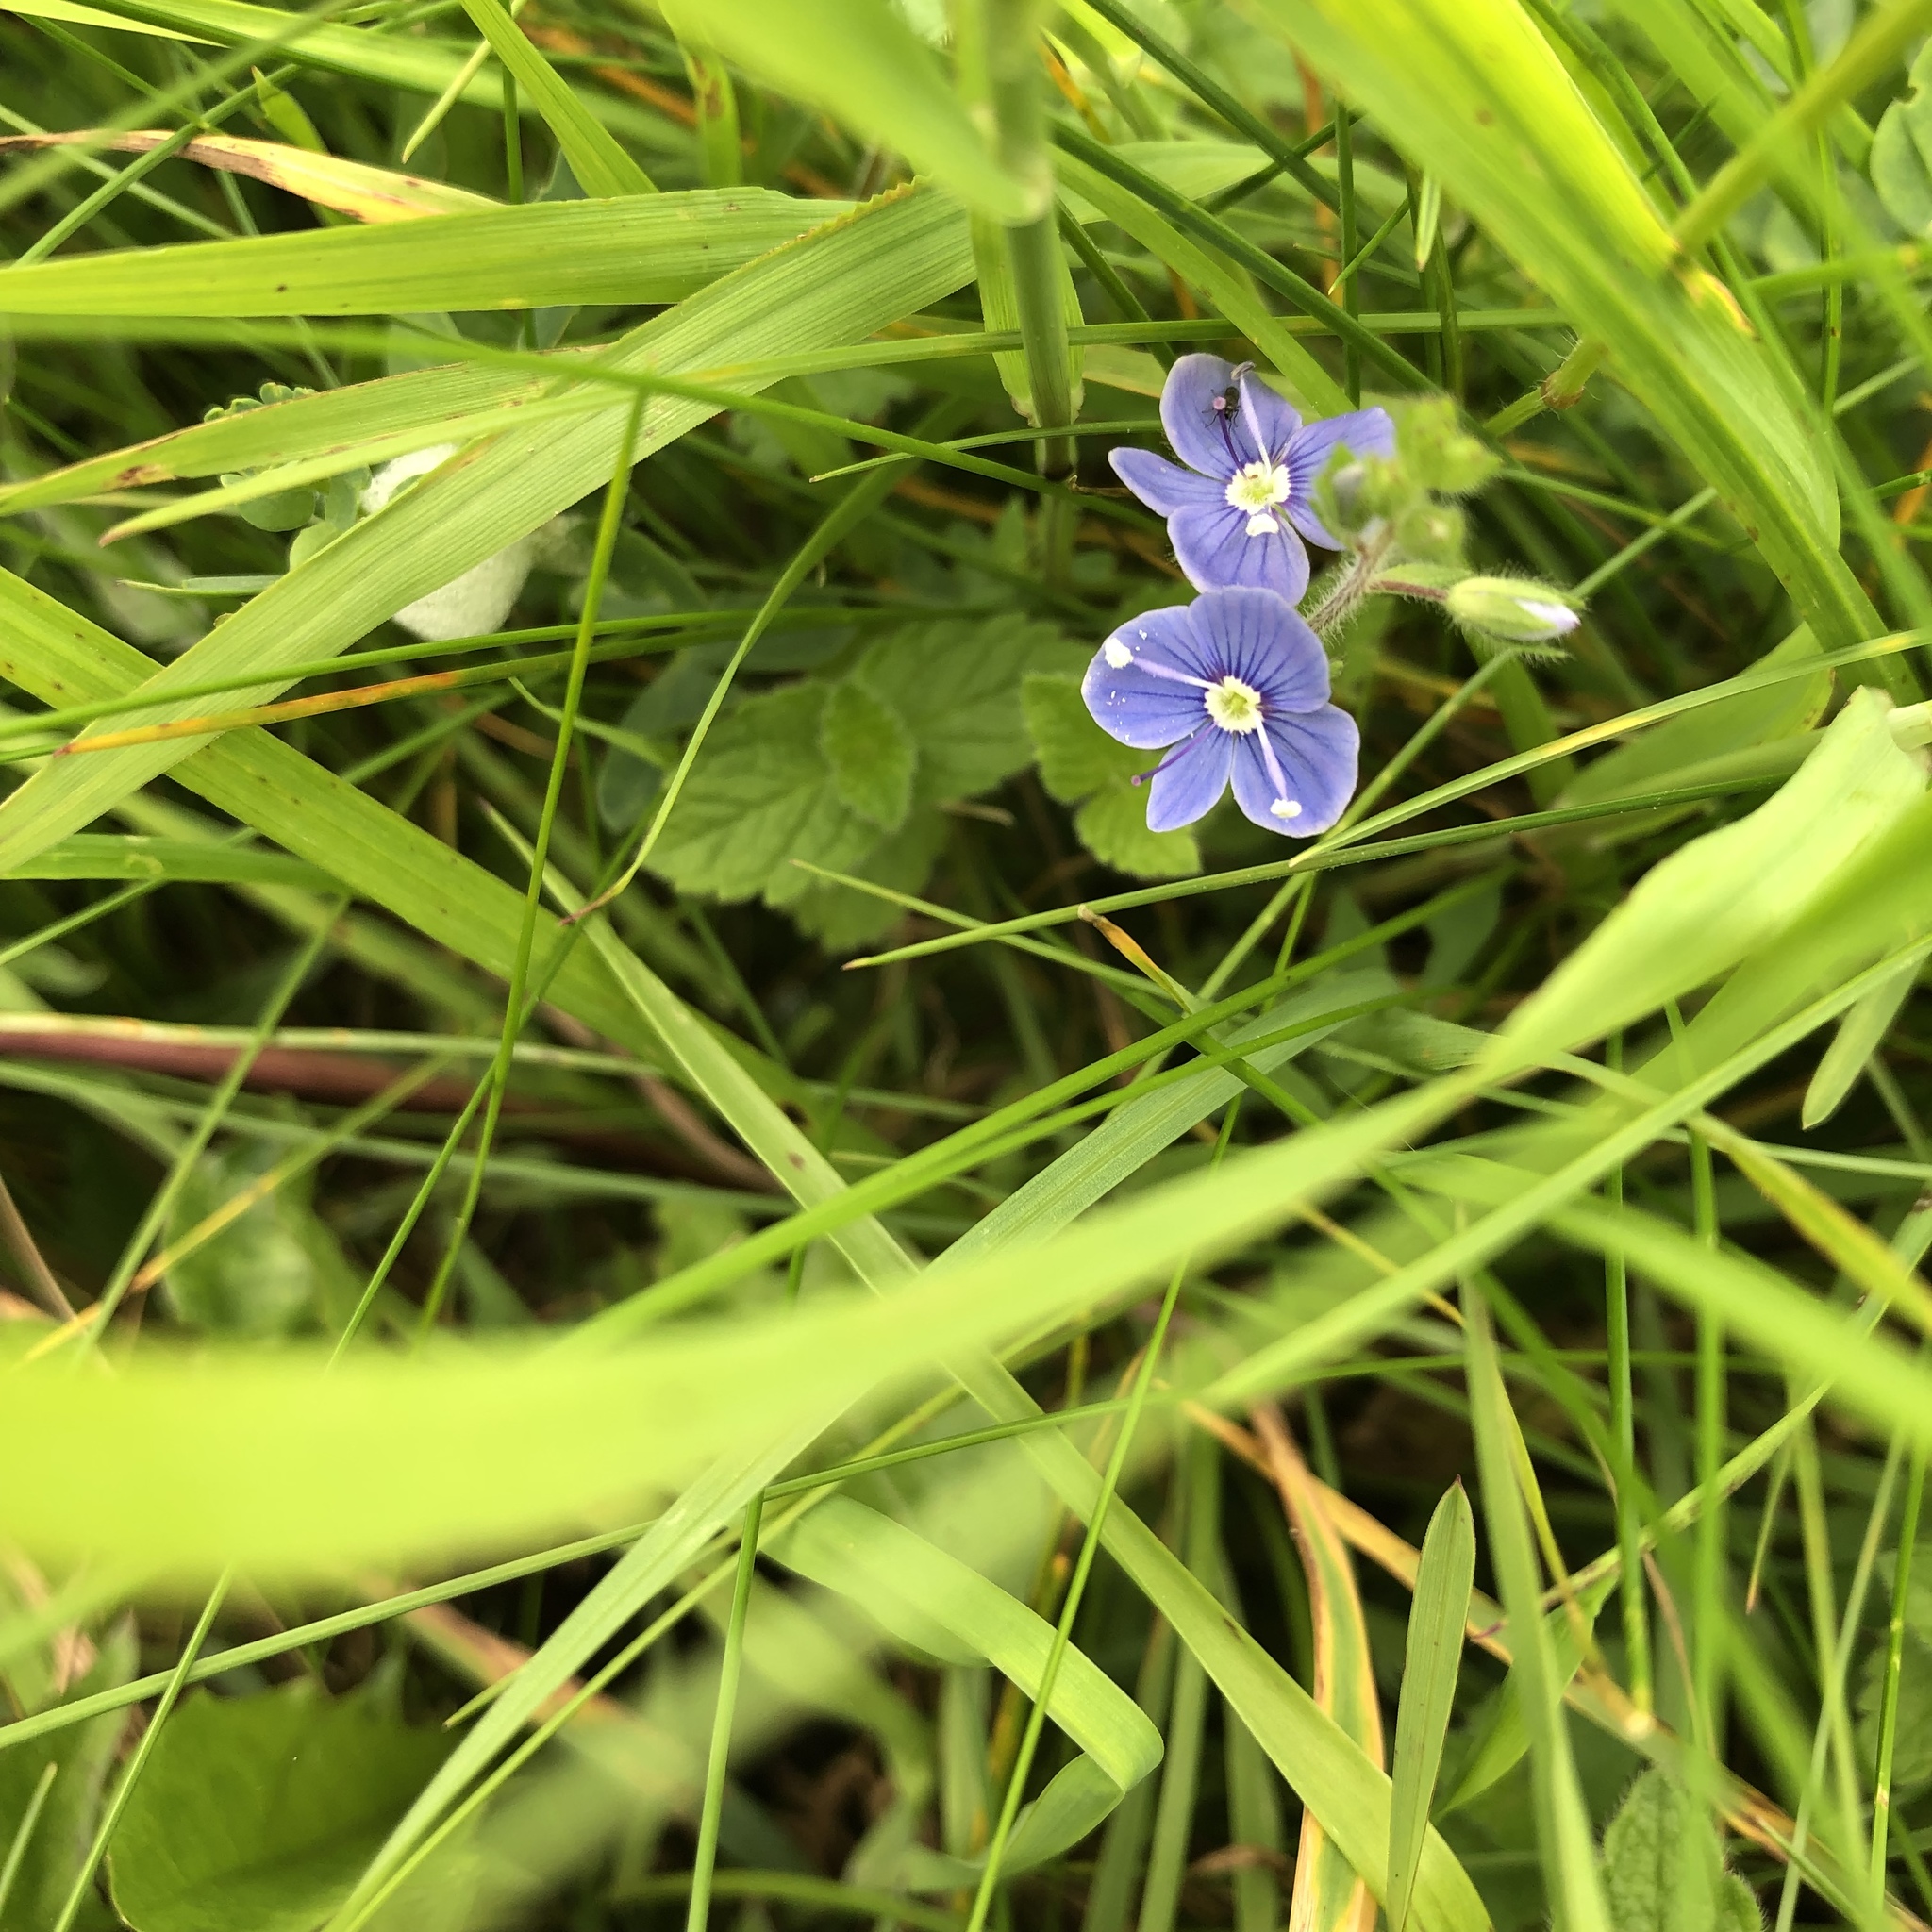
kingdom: Plantae
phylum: Tracheophyta
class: Magnoliopsida
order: Lamiales
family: Plantaginaceae
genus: Veronica
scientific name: Veronica chamaedrys
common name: Germander speedwell
